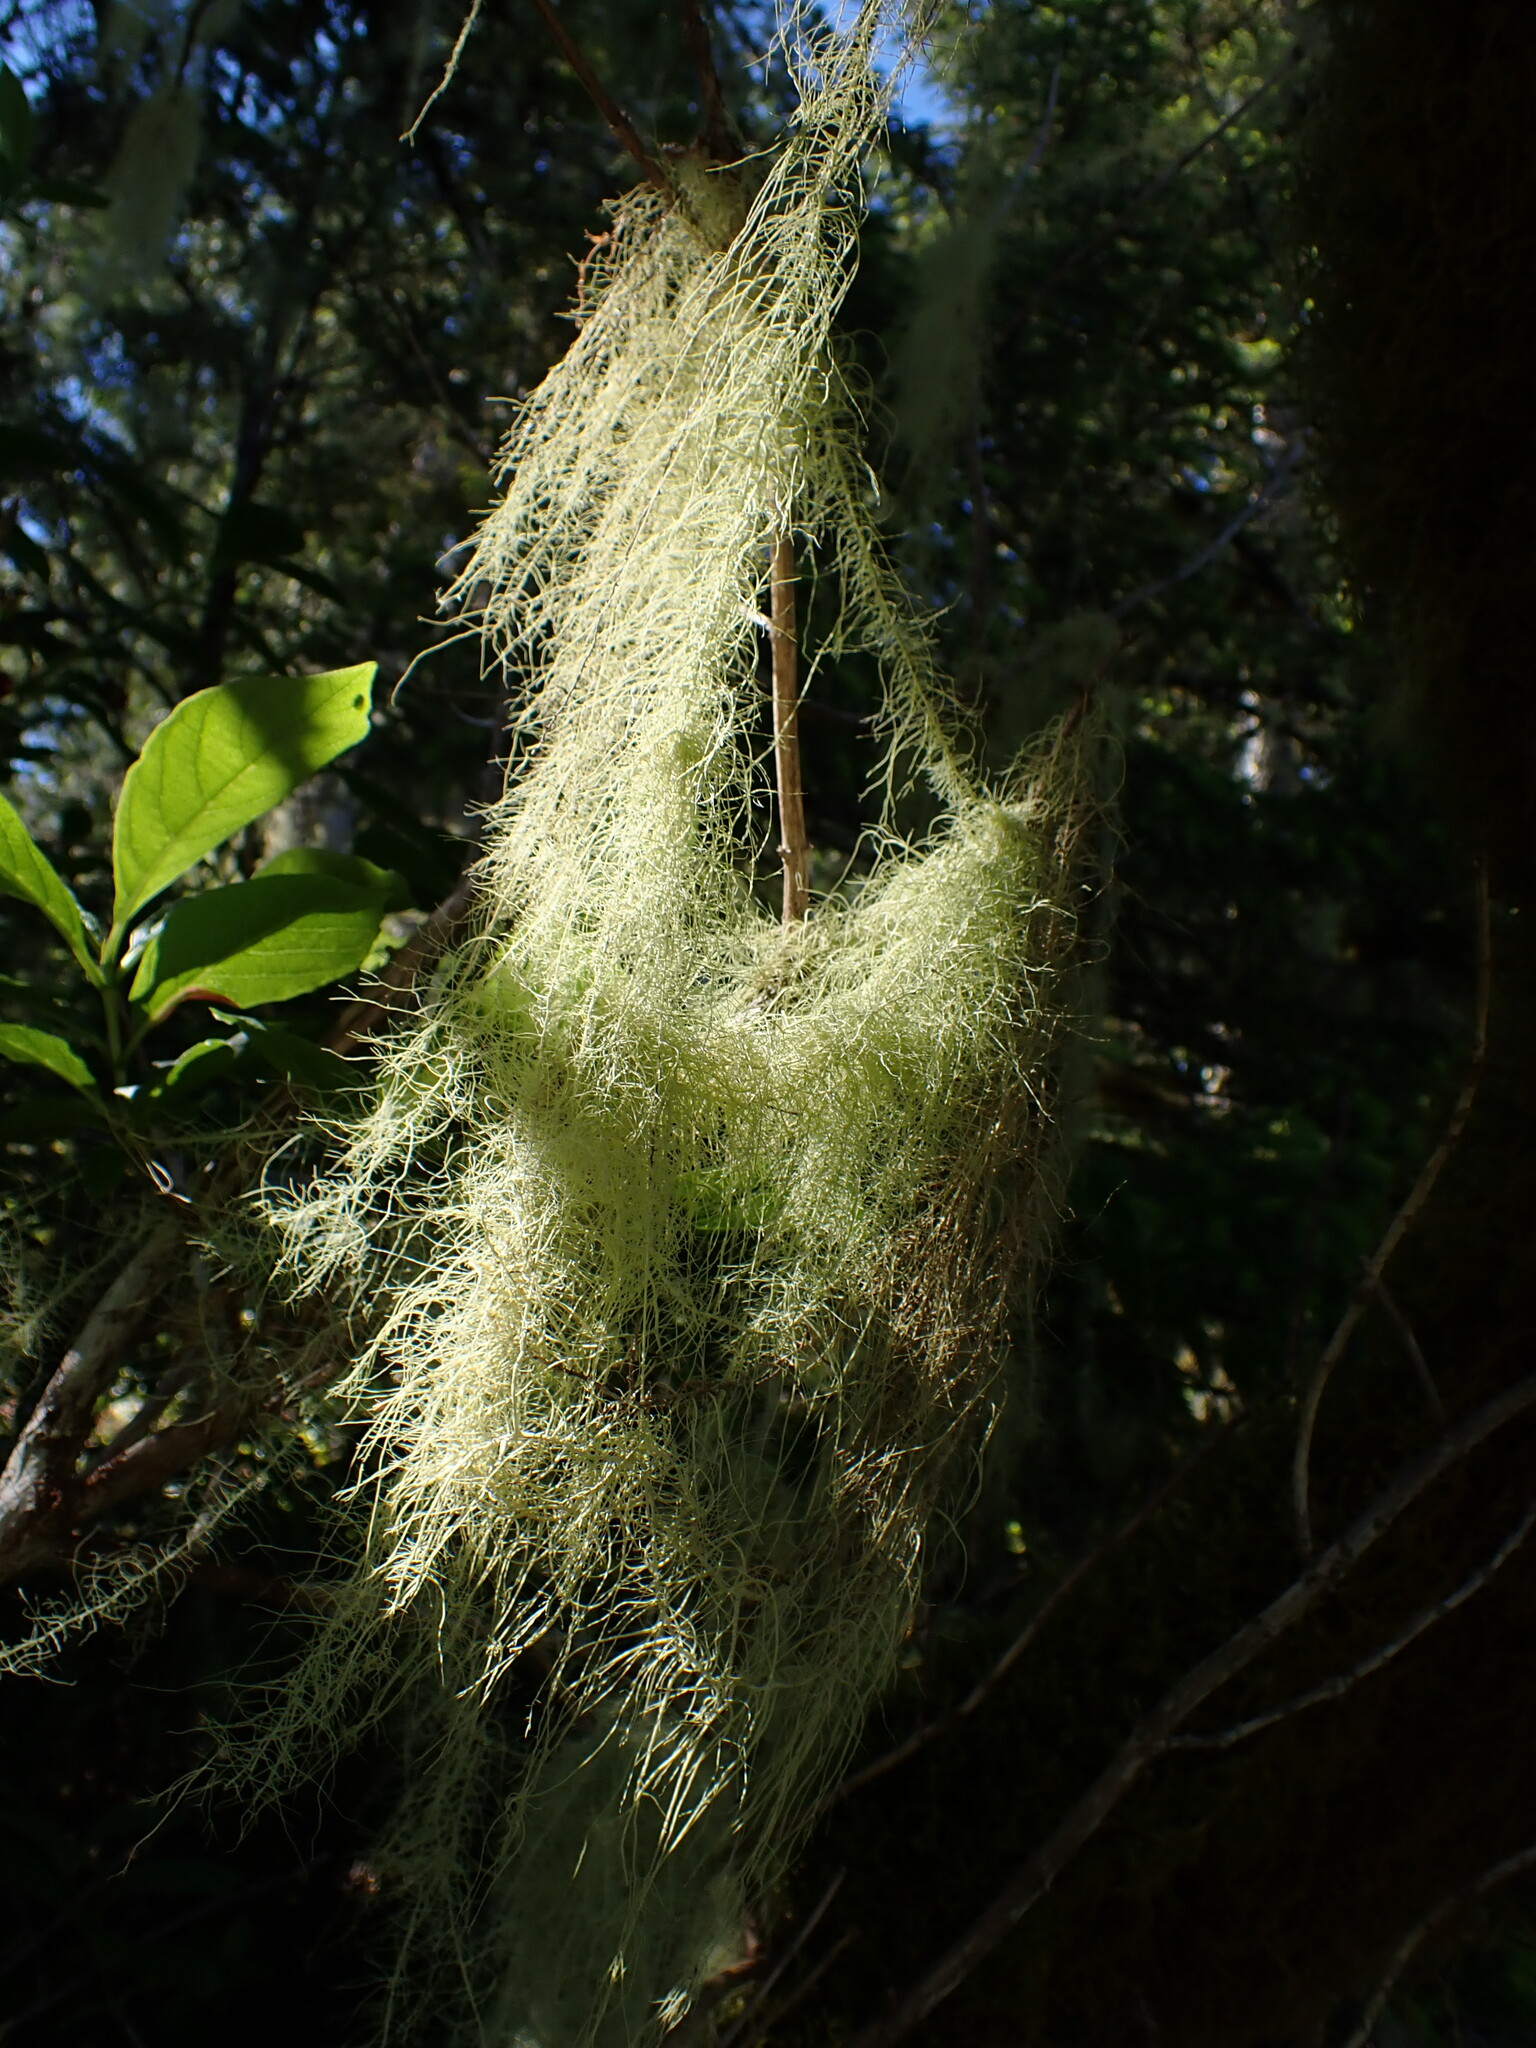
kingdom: Fungi
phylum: Ascomycota
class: Lecanoromycetes
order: Lecanorales
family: Parmeliaceae
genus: Dolichousnea
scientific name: Dolichousnea longissima
